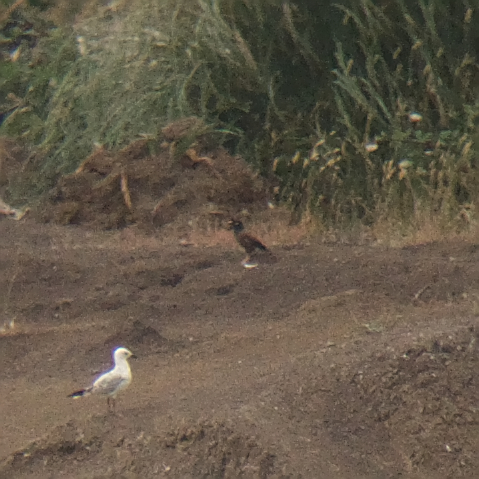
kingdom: Animalia
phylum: Chordata
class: Aves
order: Passeriformes
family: Sturnidae
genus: Acridotheres
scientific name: Acridotheres tristis
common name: Common myna
